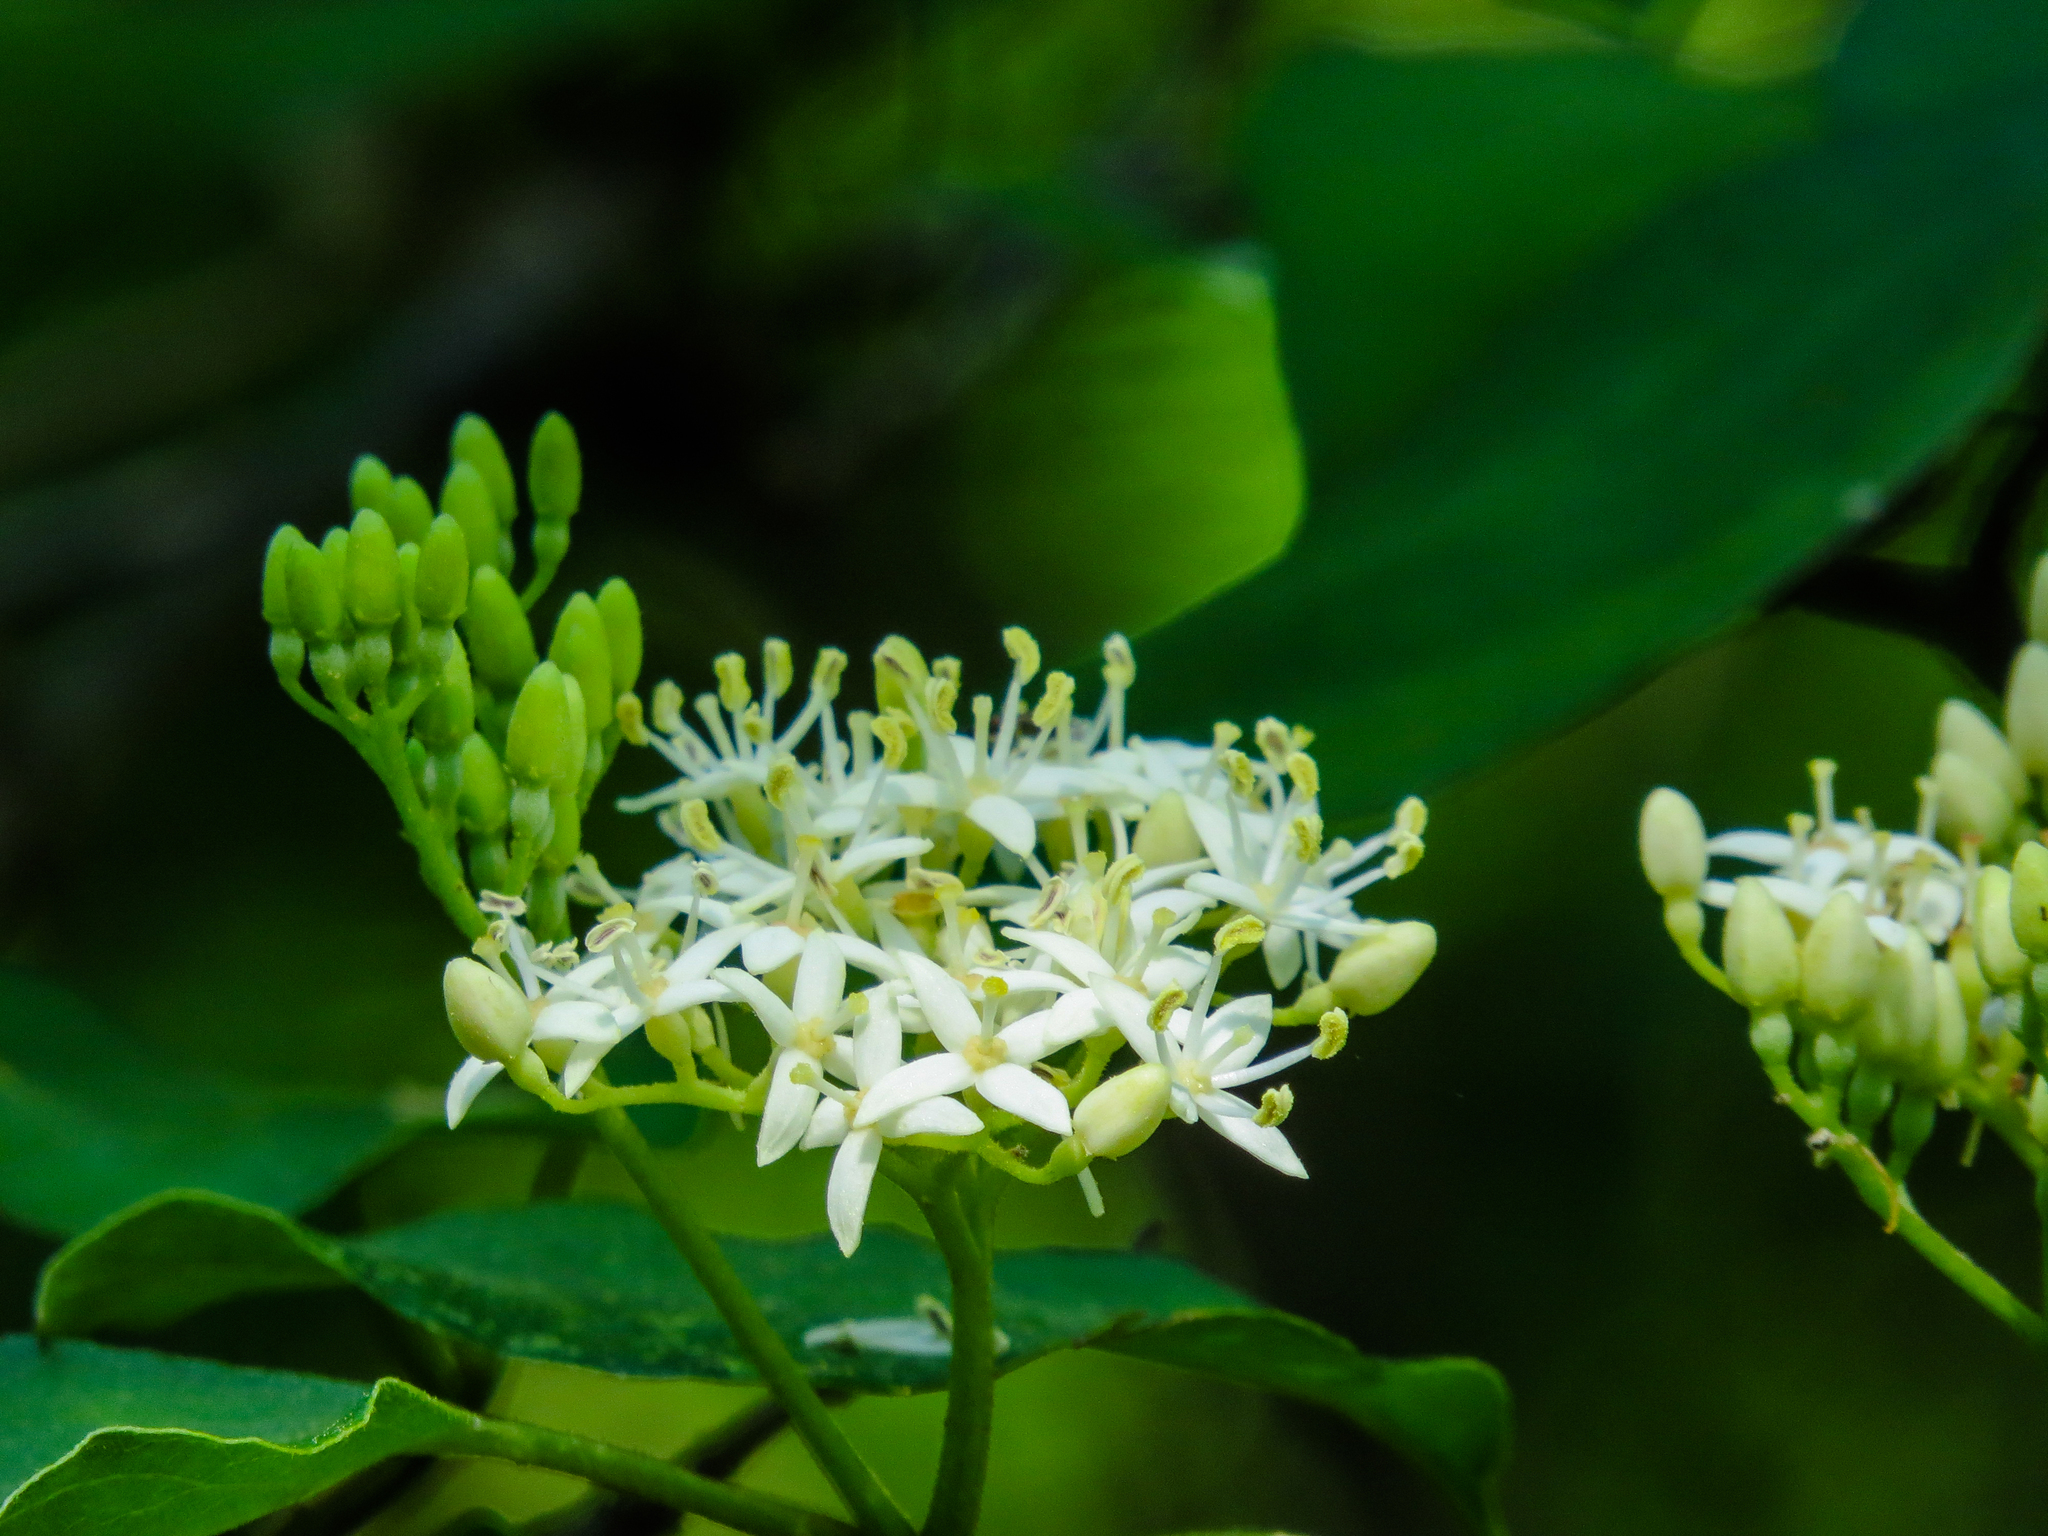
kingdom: Plantae
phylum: Tracheophyta
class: Magnoliopsida
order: Cornales
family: Cornaceae
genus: Cornus
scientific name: Cornus drummondii
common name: Rough-leaf dogwood
